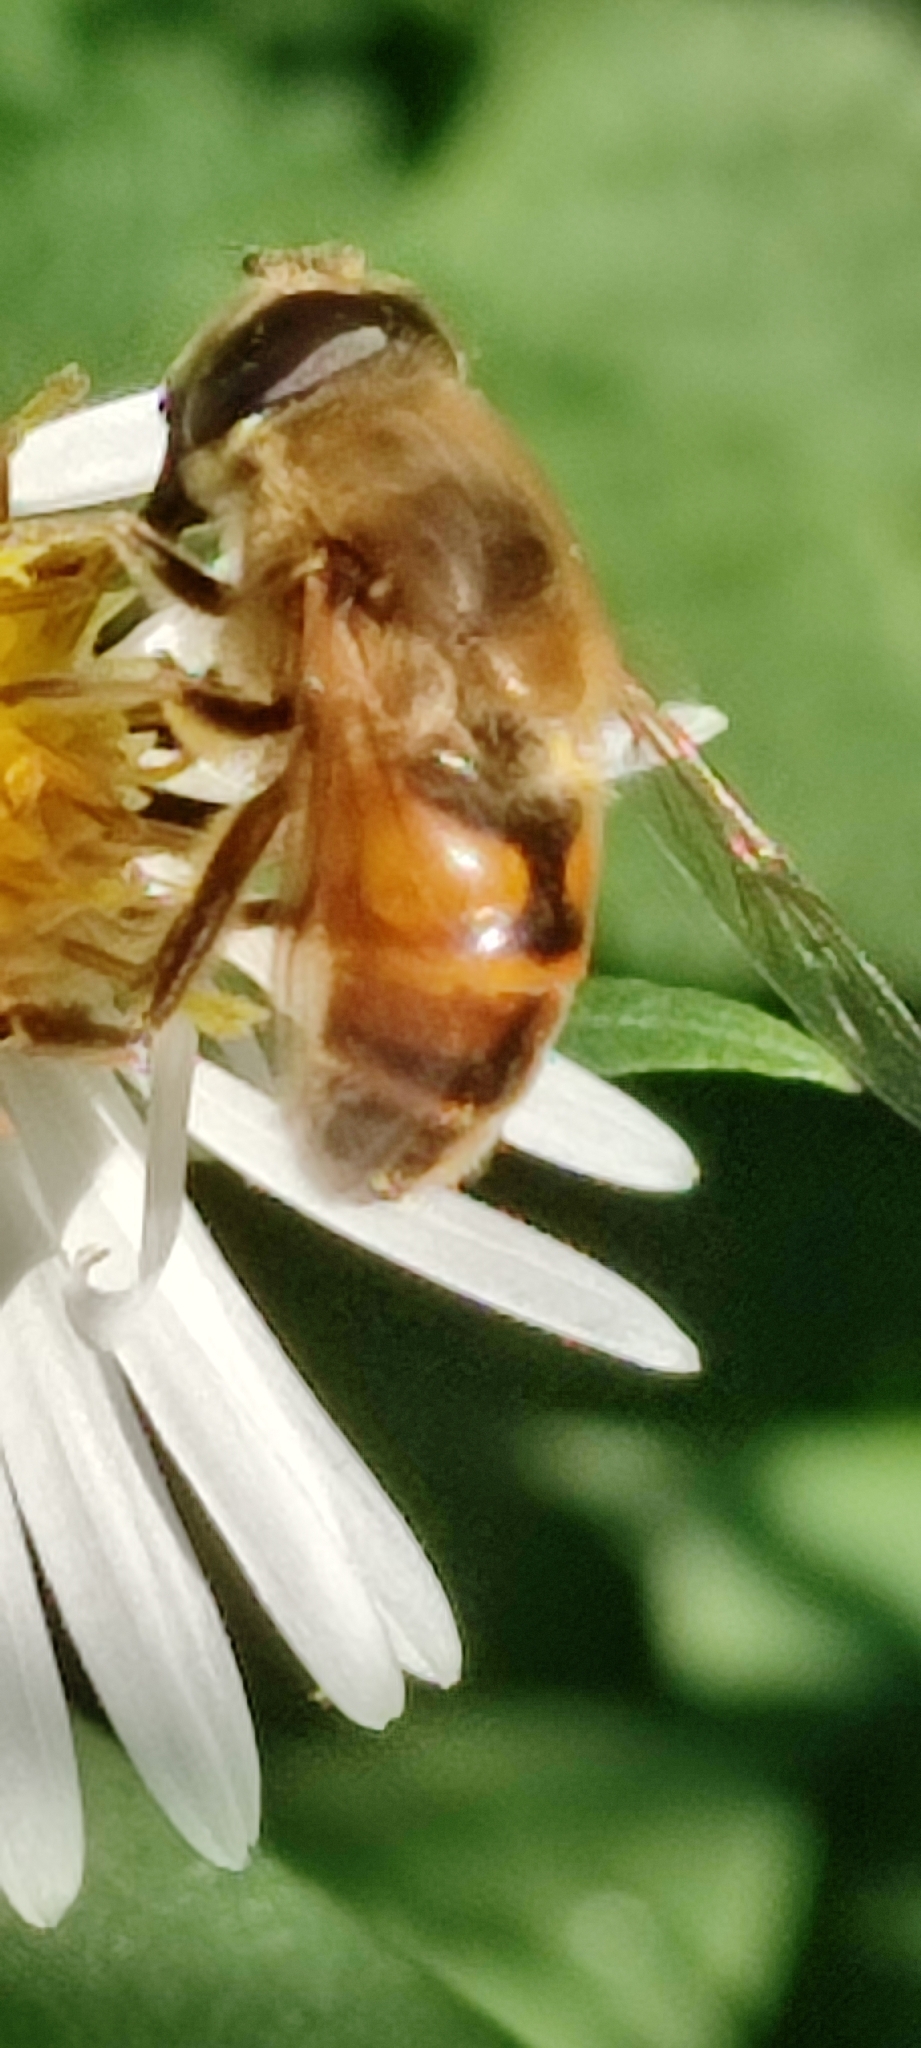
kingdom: Animalia
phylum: Arthropoda
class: Insecta
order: Diptera
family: Syrphidae
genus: Eristalis
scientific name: Eristalis tenax
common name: Drone fly
